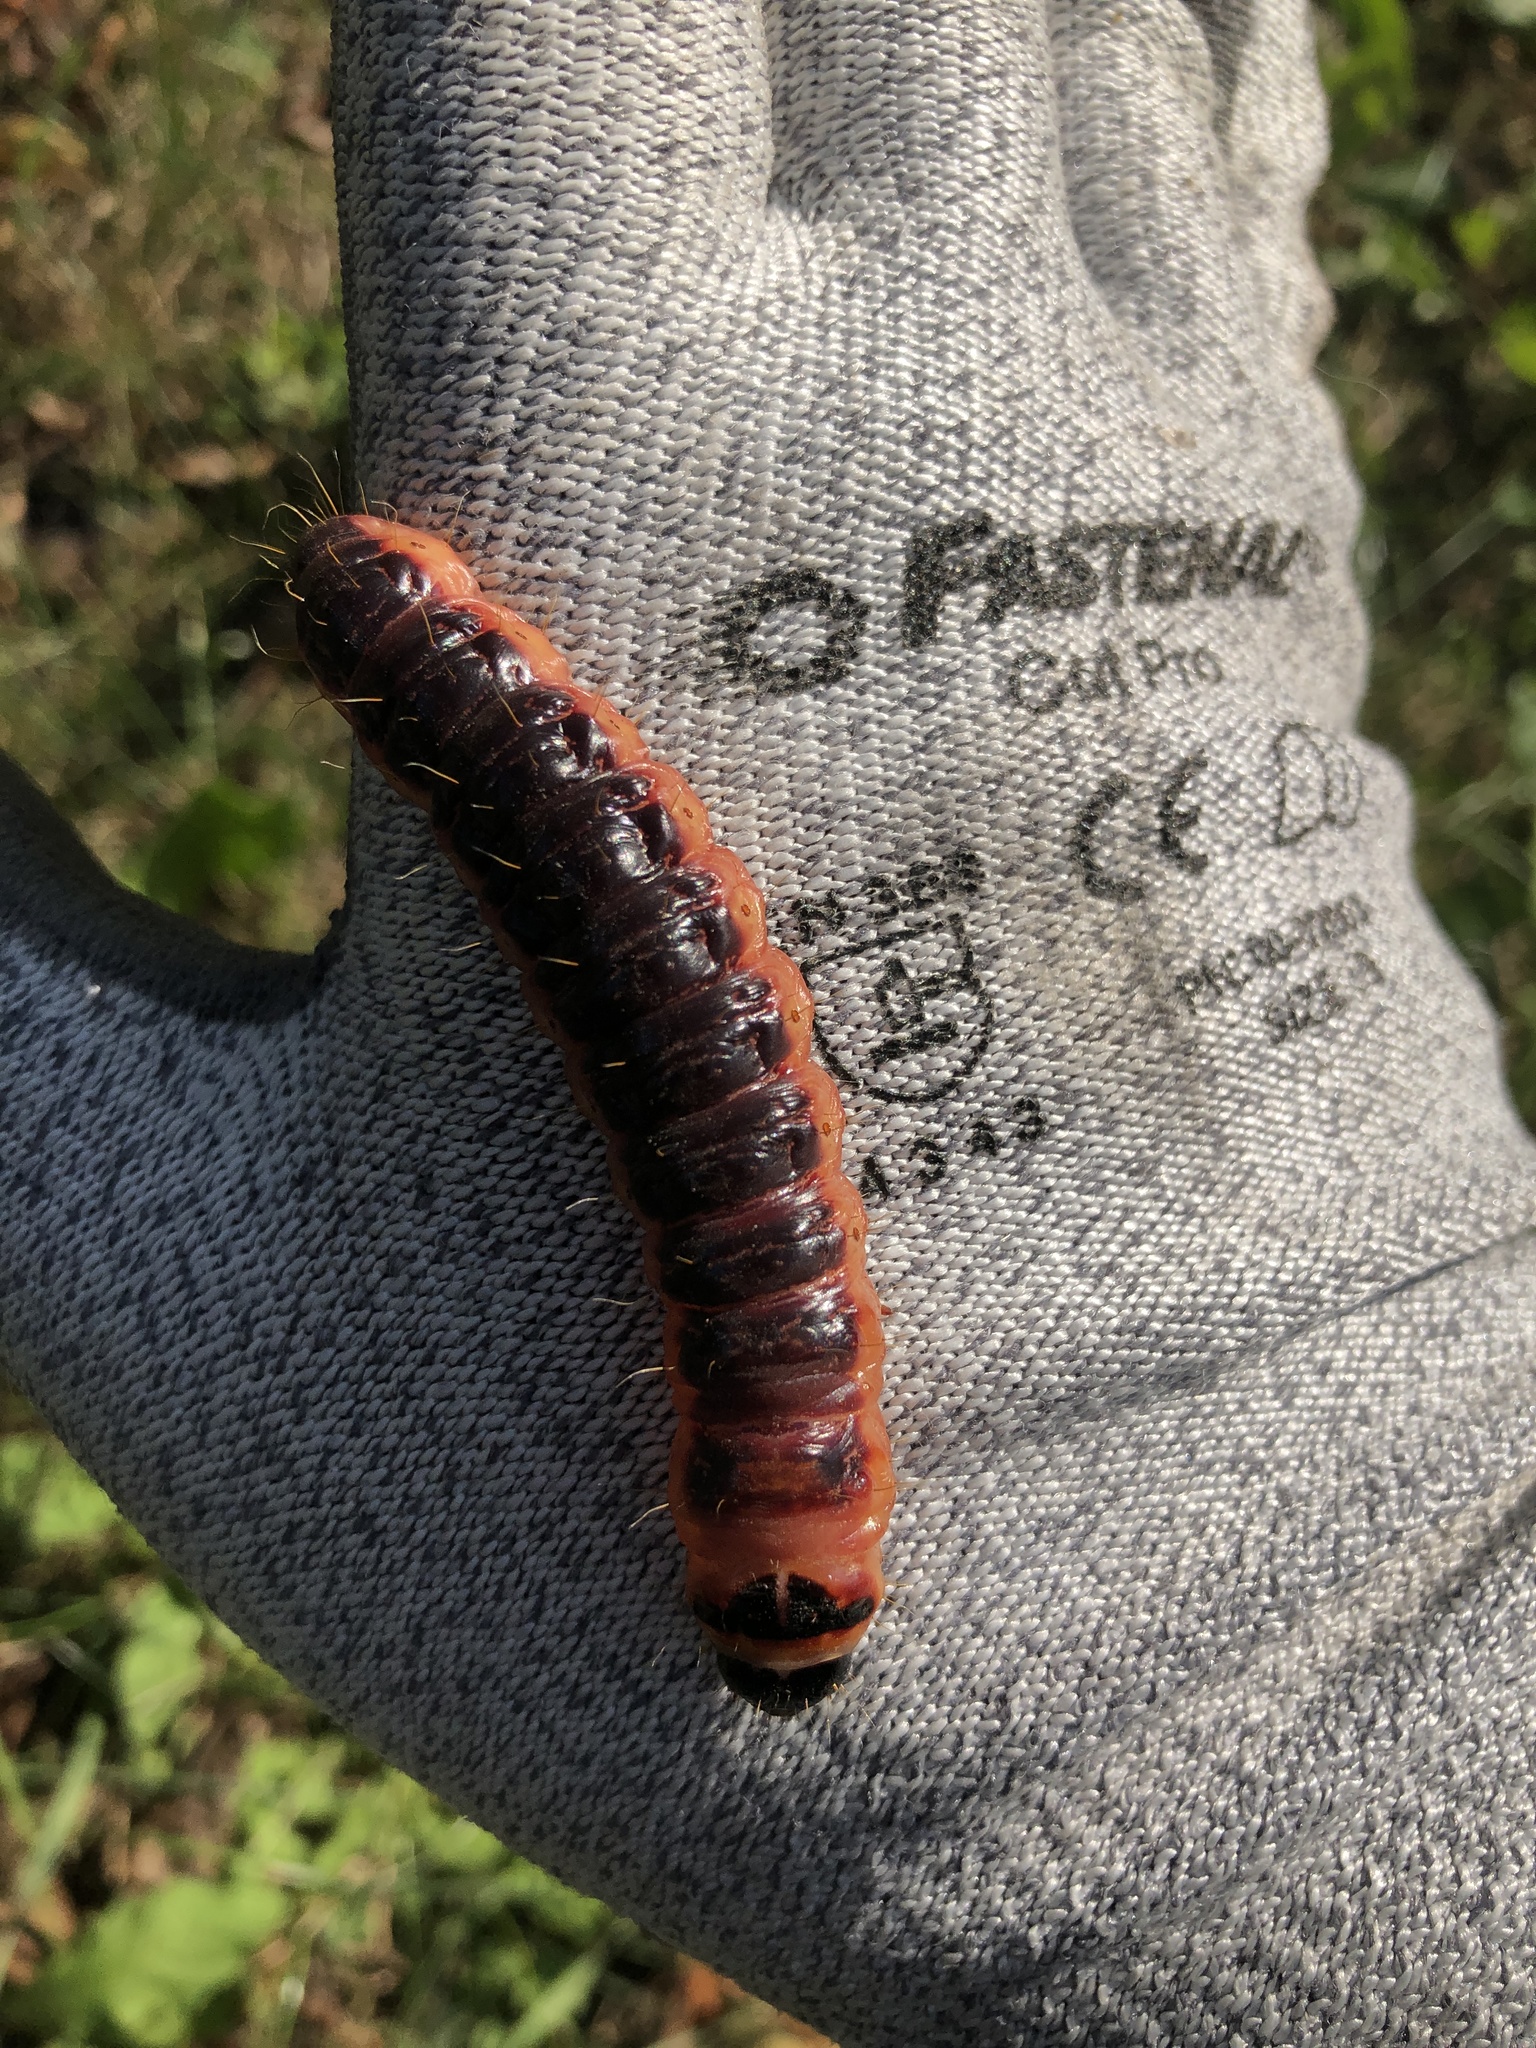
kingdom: Animalia
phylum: Arthropoda
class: Insecta
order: Lepidoptera
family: Cossidae
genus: Cossus
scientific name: Cossus cossus
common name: Goat moth
